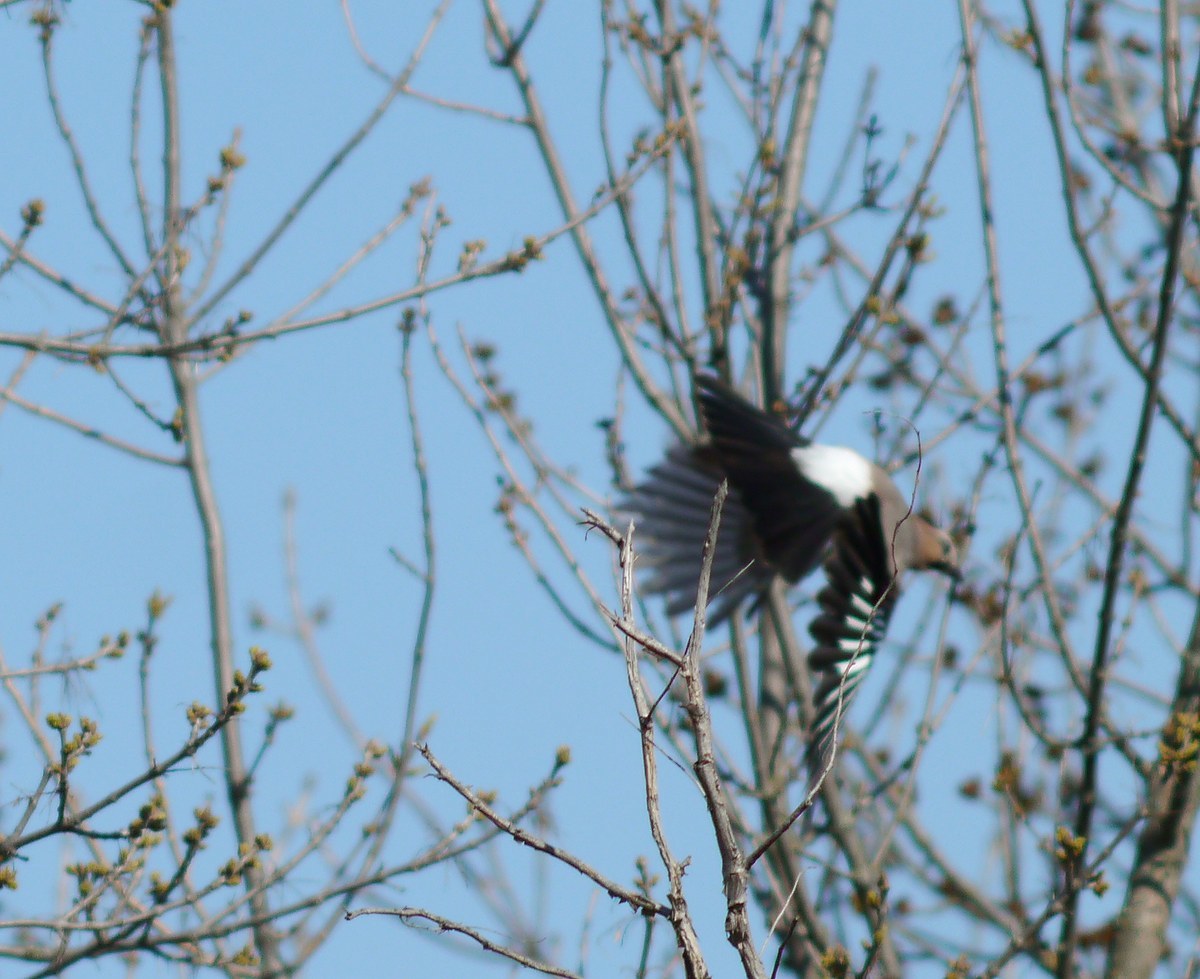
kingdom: Animalia
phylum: Chordata
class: Aves
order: Passeriformes
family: Corvidae
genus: Garrulus
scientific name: Garrulus glandarius
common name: Eurasian jay
